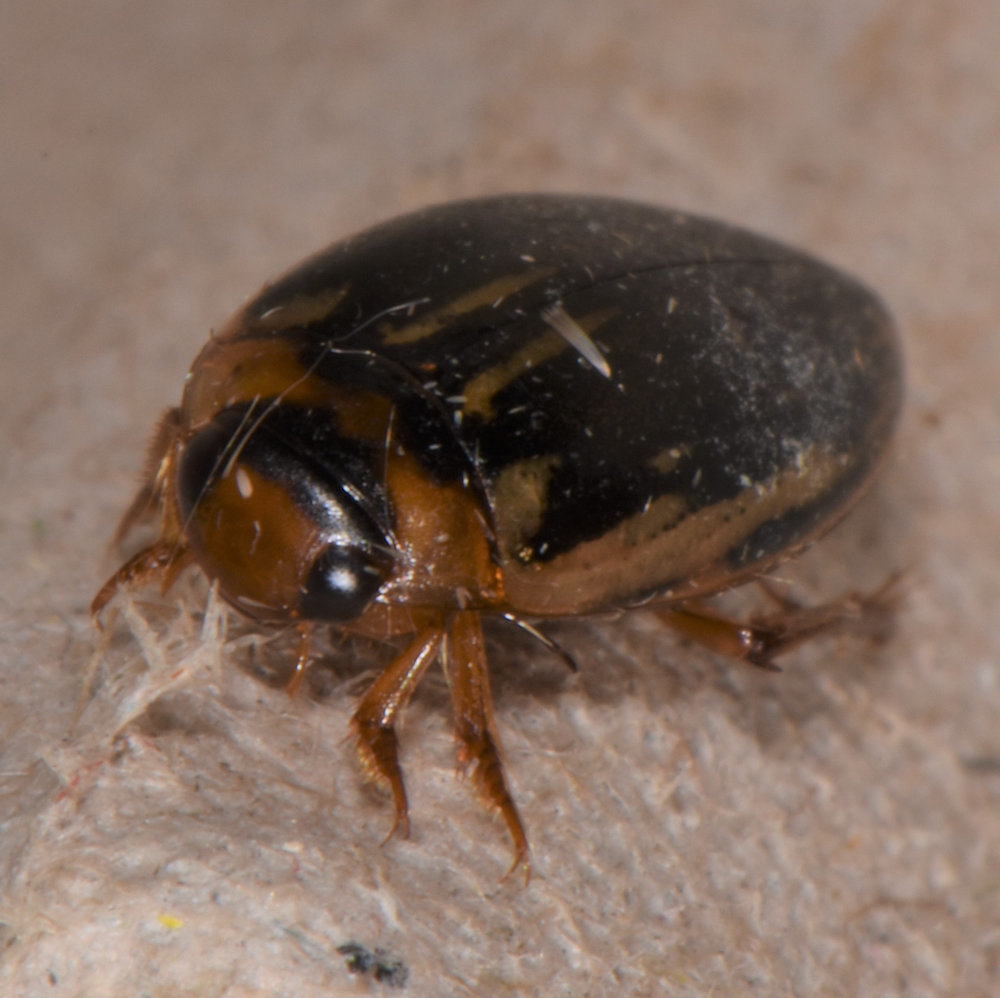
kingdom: Animalia
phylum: Arthropoda
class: Insecta
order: Coleoptera
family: Dytiscidae
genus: Coptotomus
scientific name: Coptotomus longulus
